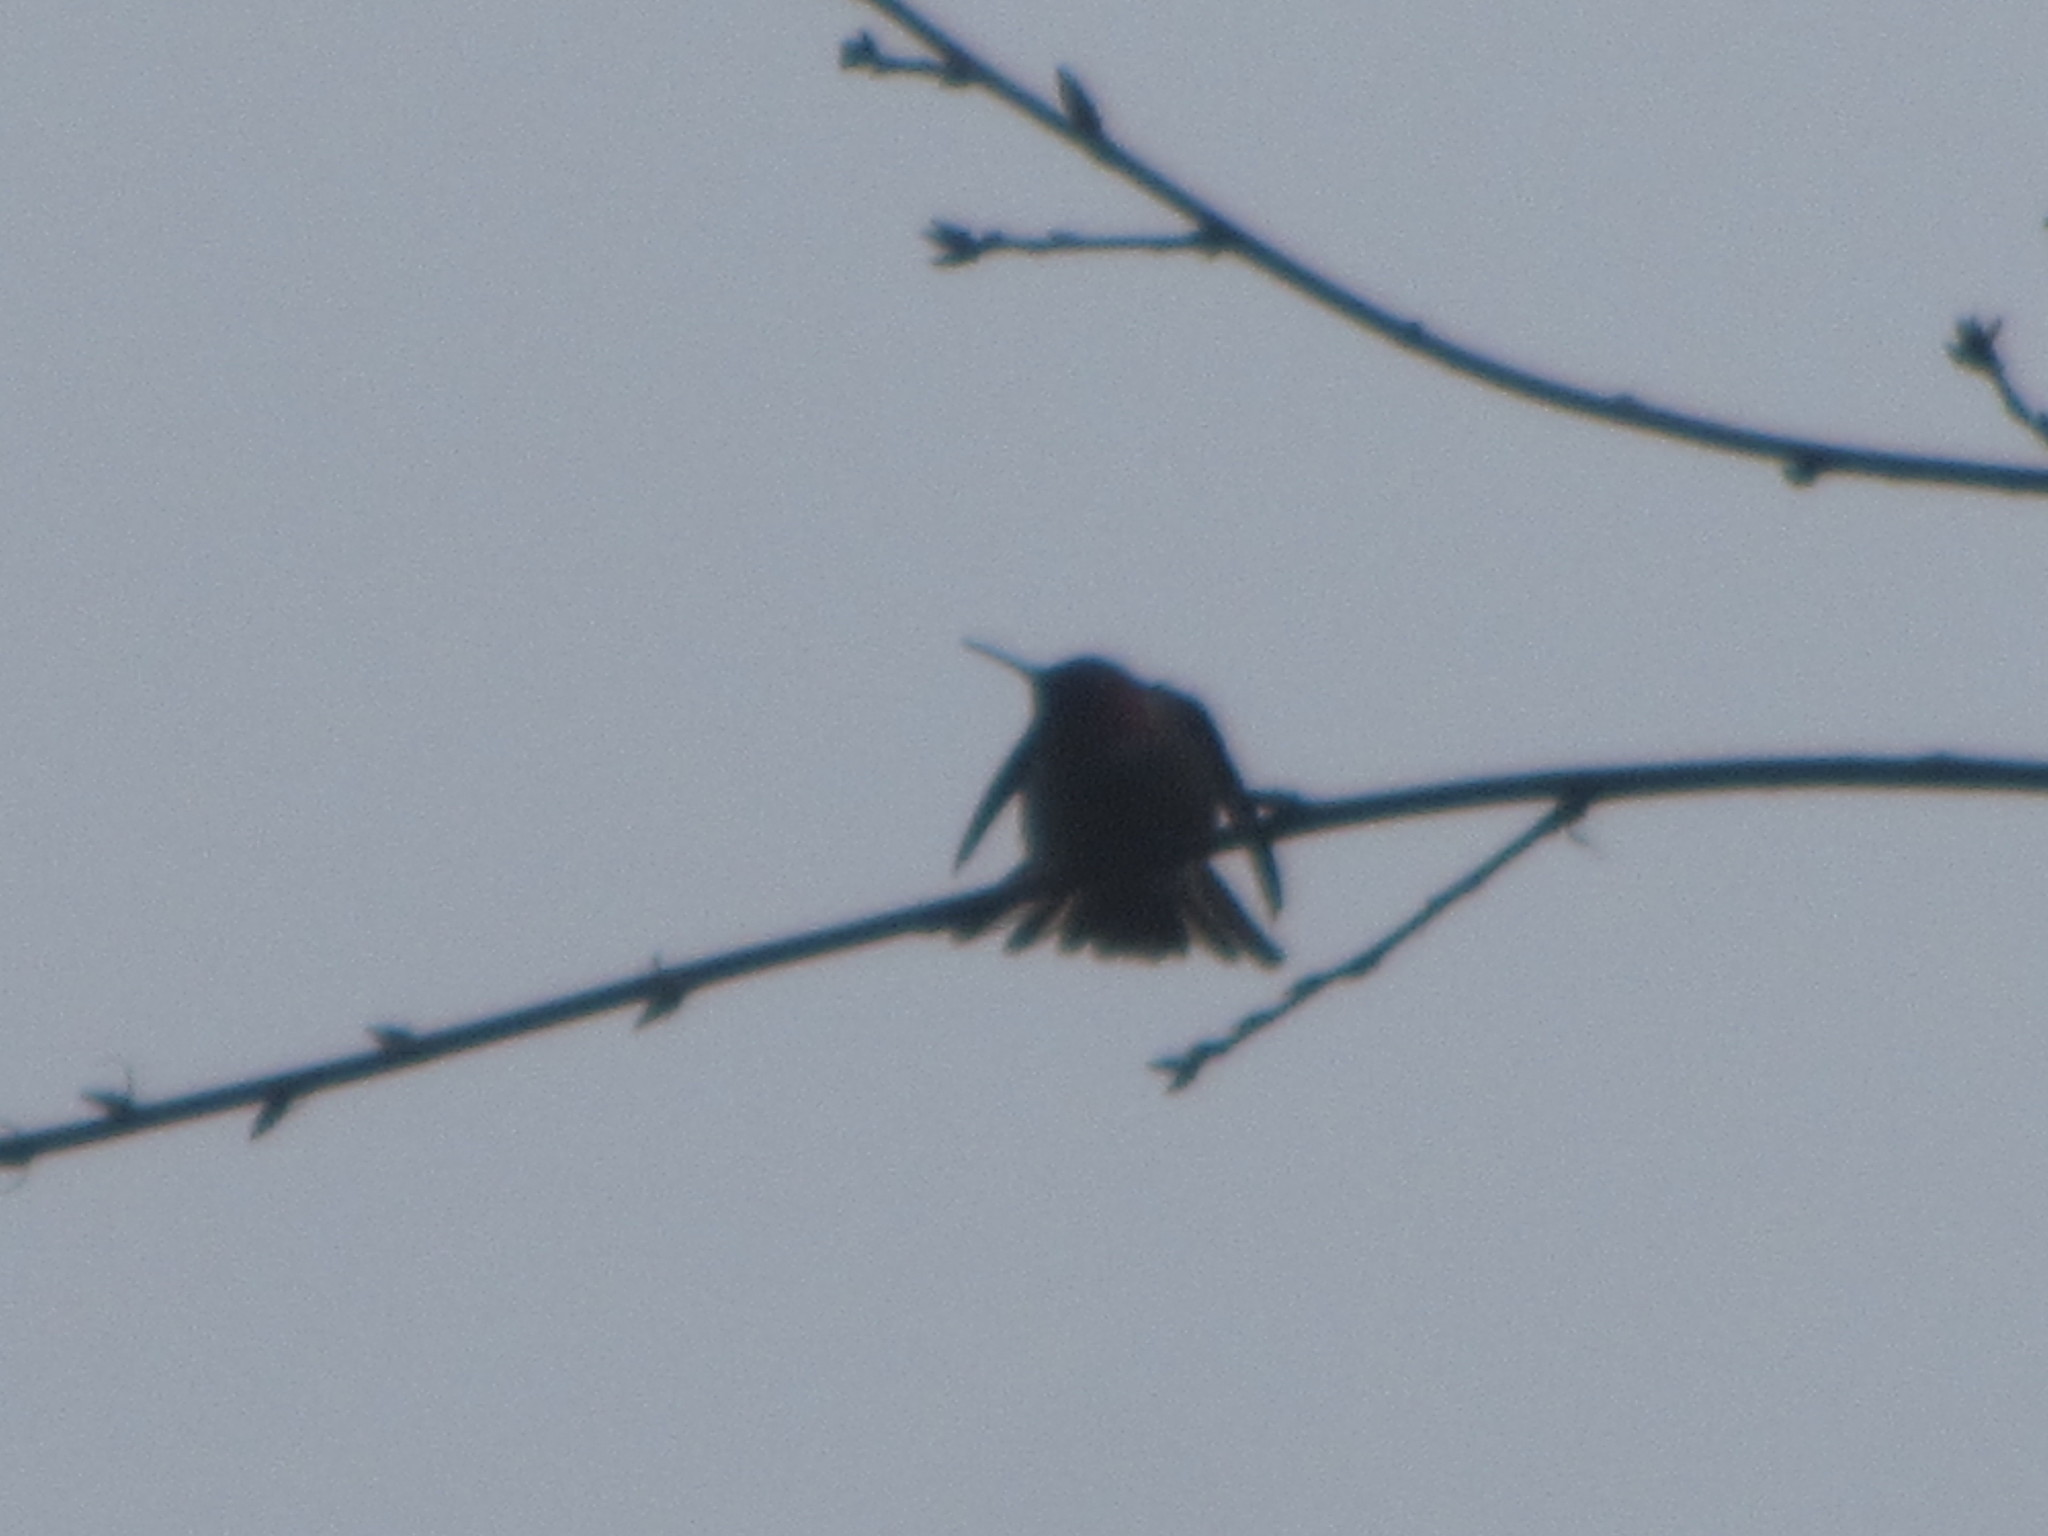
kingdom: Animalia
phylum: Chordata
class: Aves
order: Apodiformes
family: Trochilidae
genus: Calypte
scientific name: Calypte anna
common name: Anna's hummingbird
